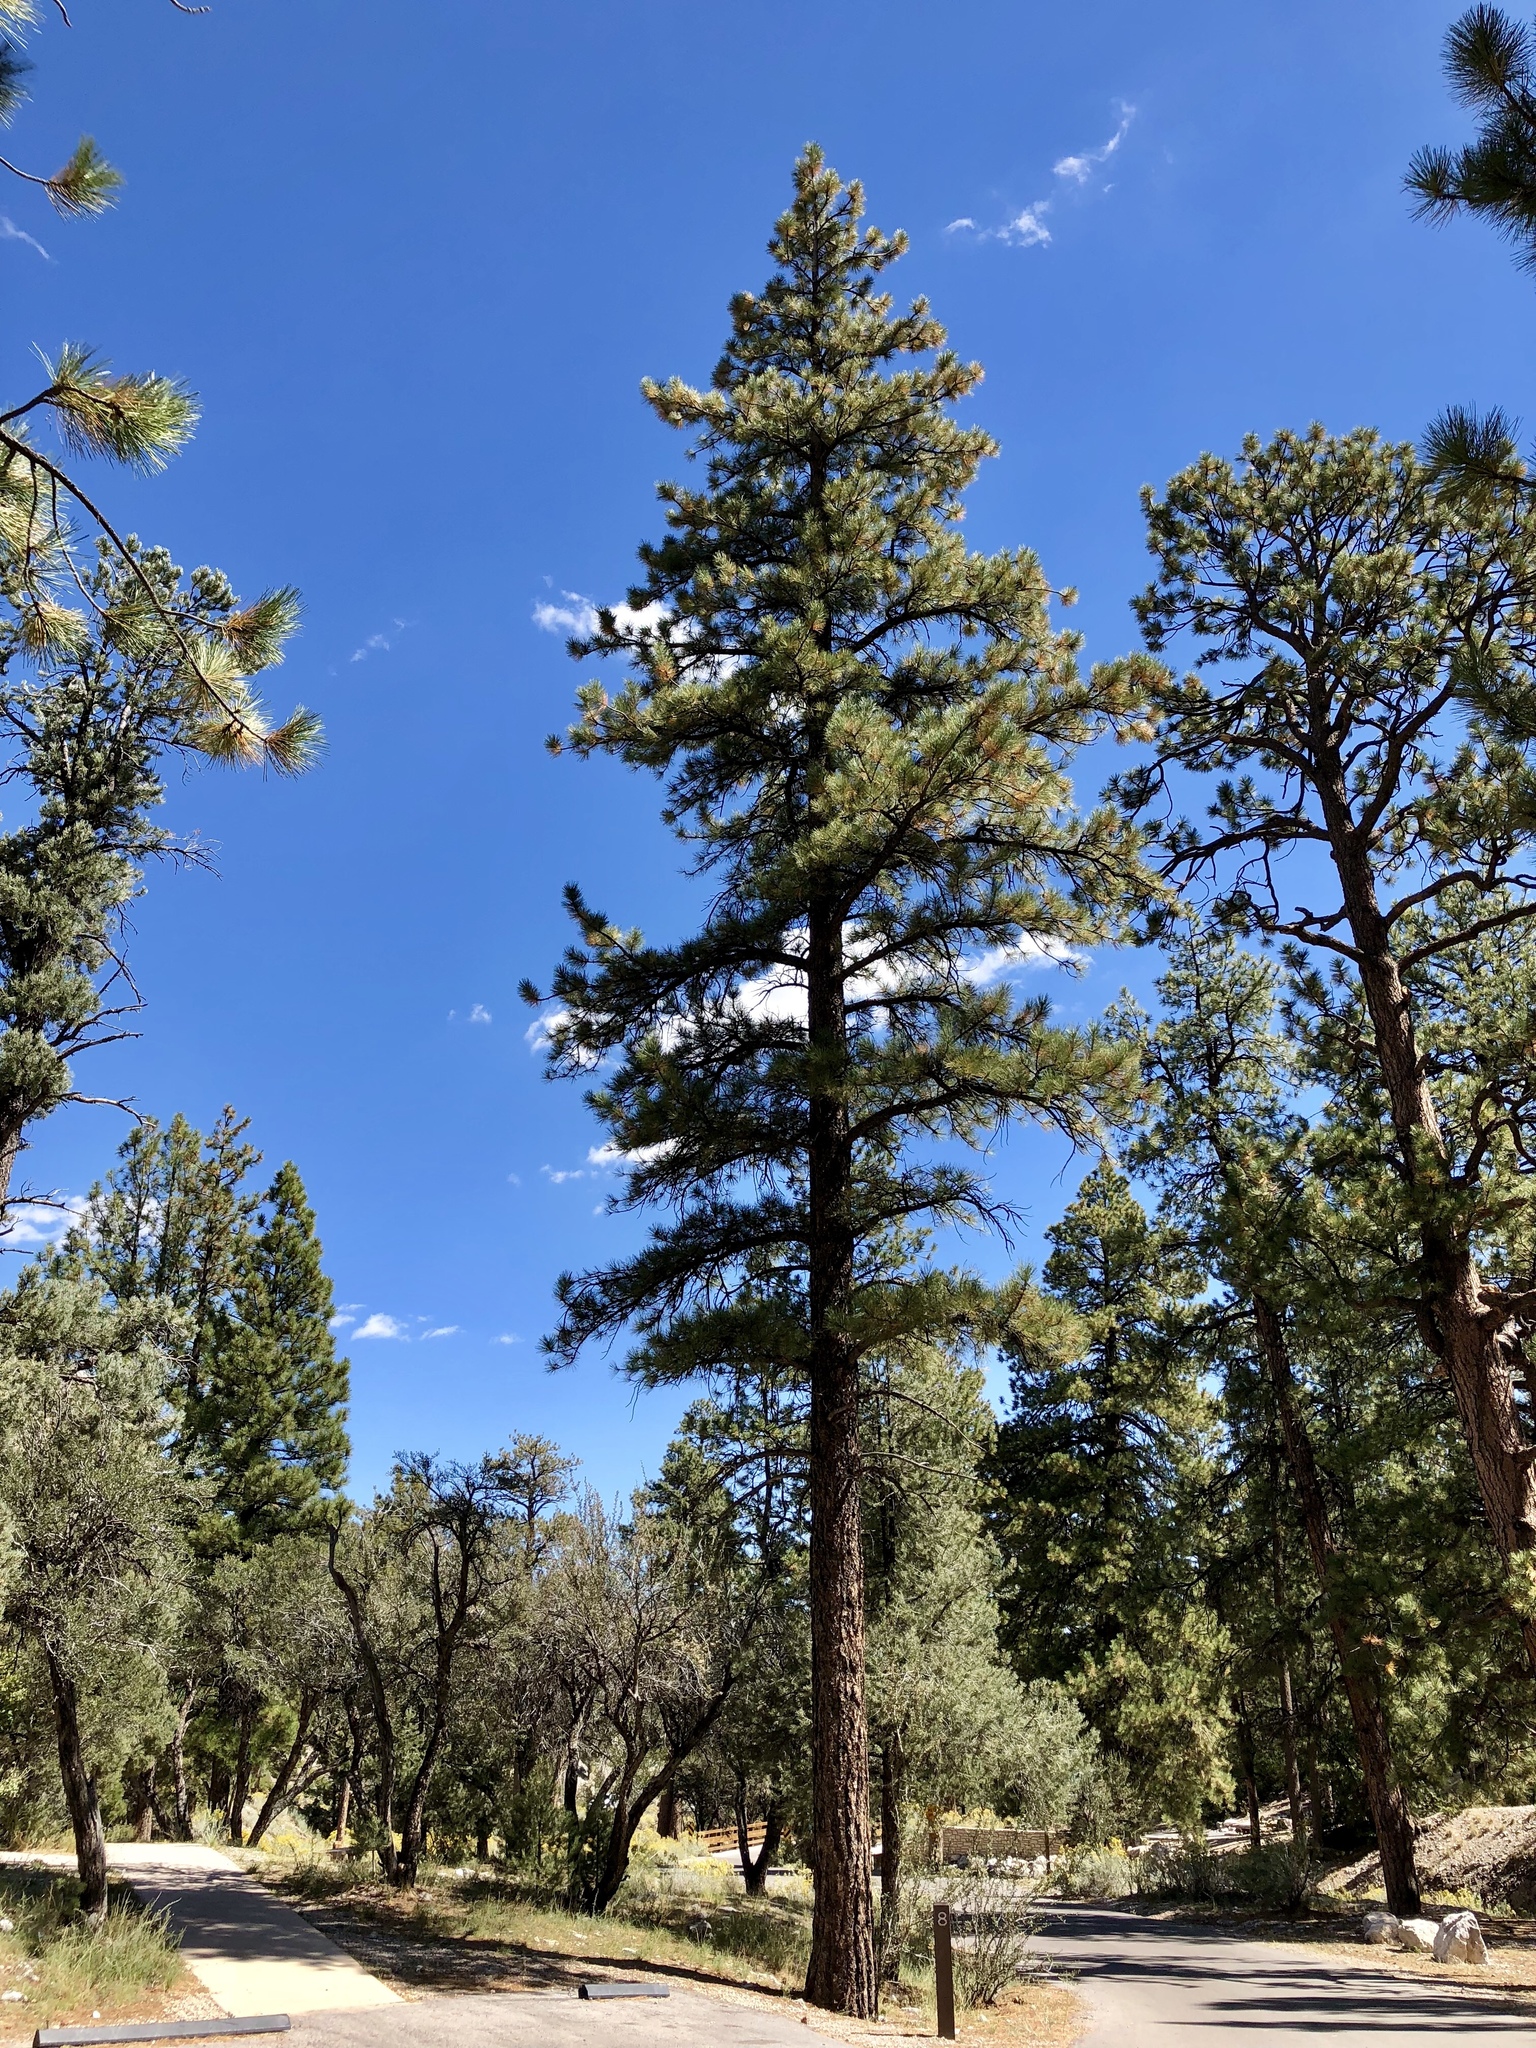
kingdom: Plantae
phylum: Tracheophyta
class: Pinopsida
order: Pinales
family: Pinaceae
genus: Pinus
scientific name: Pinus ponderosa
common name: Western yellow-pine
